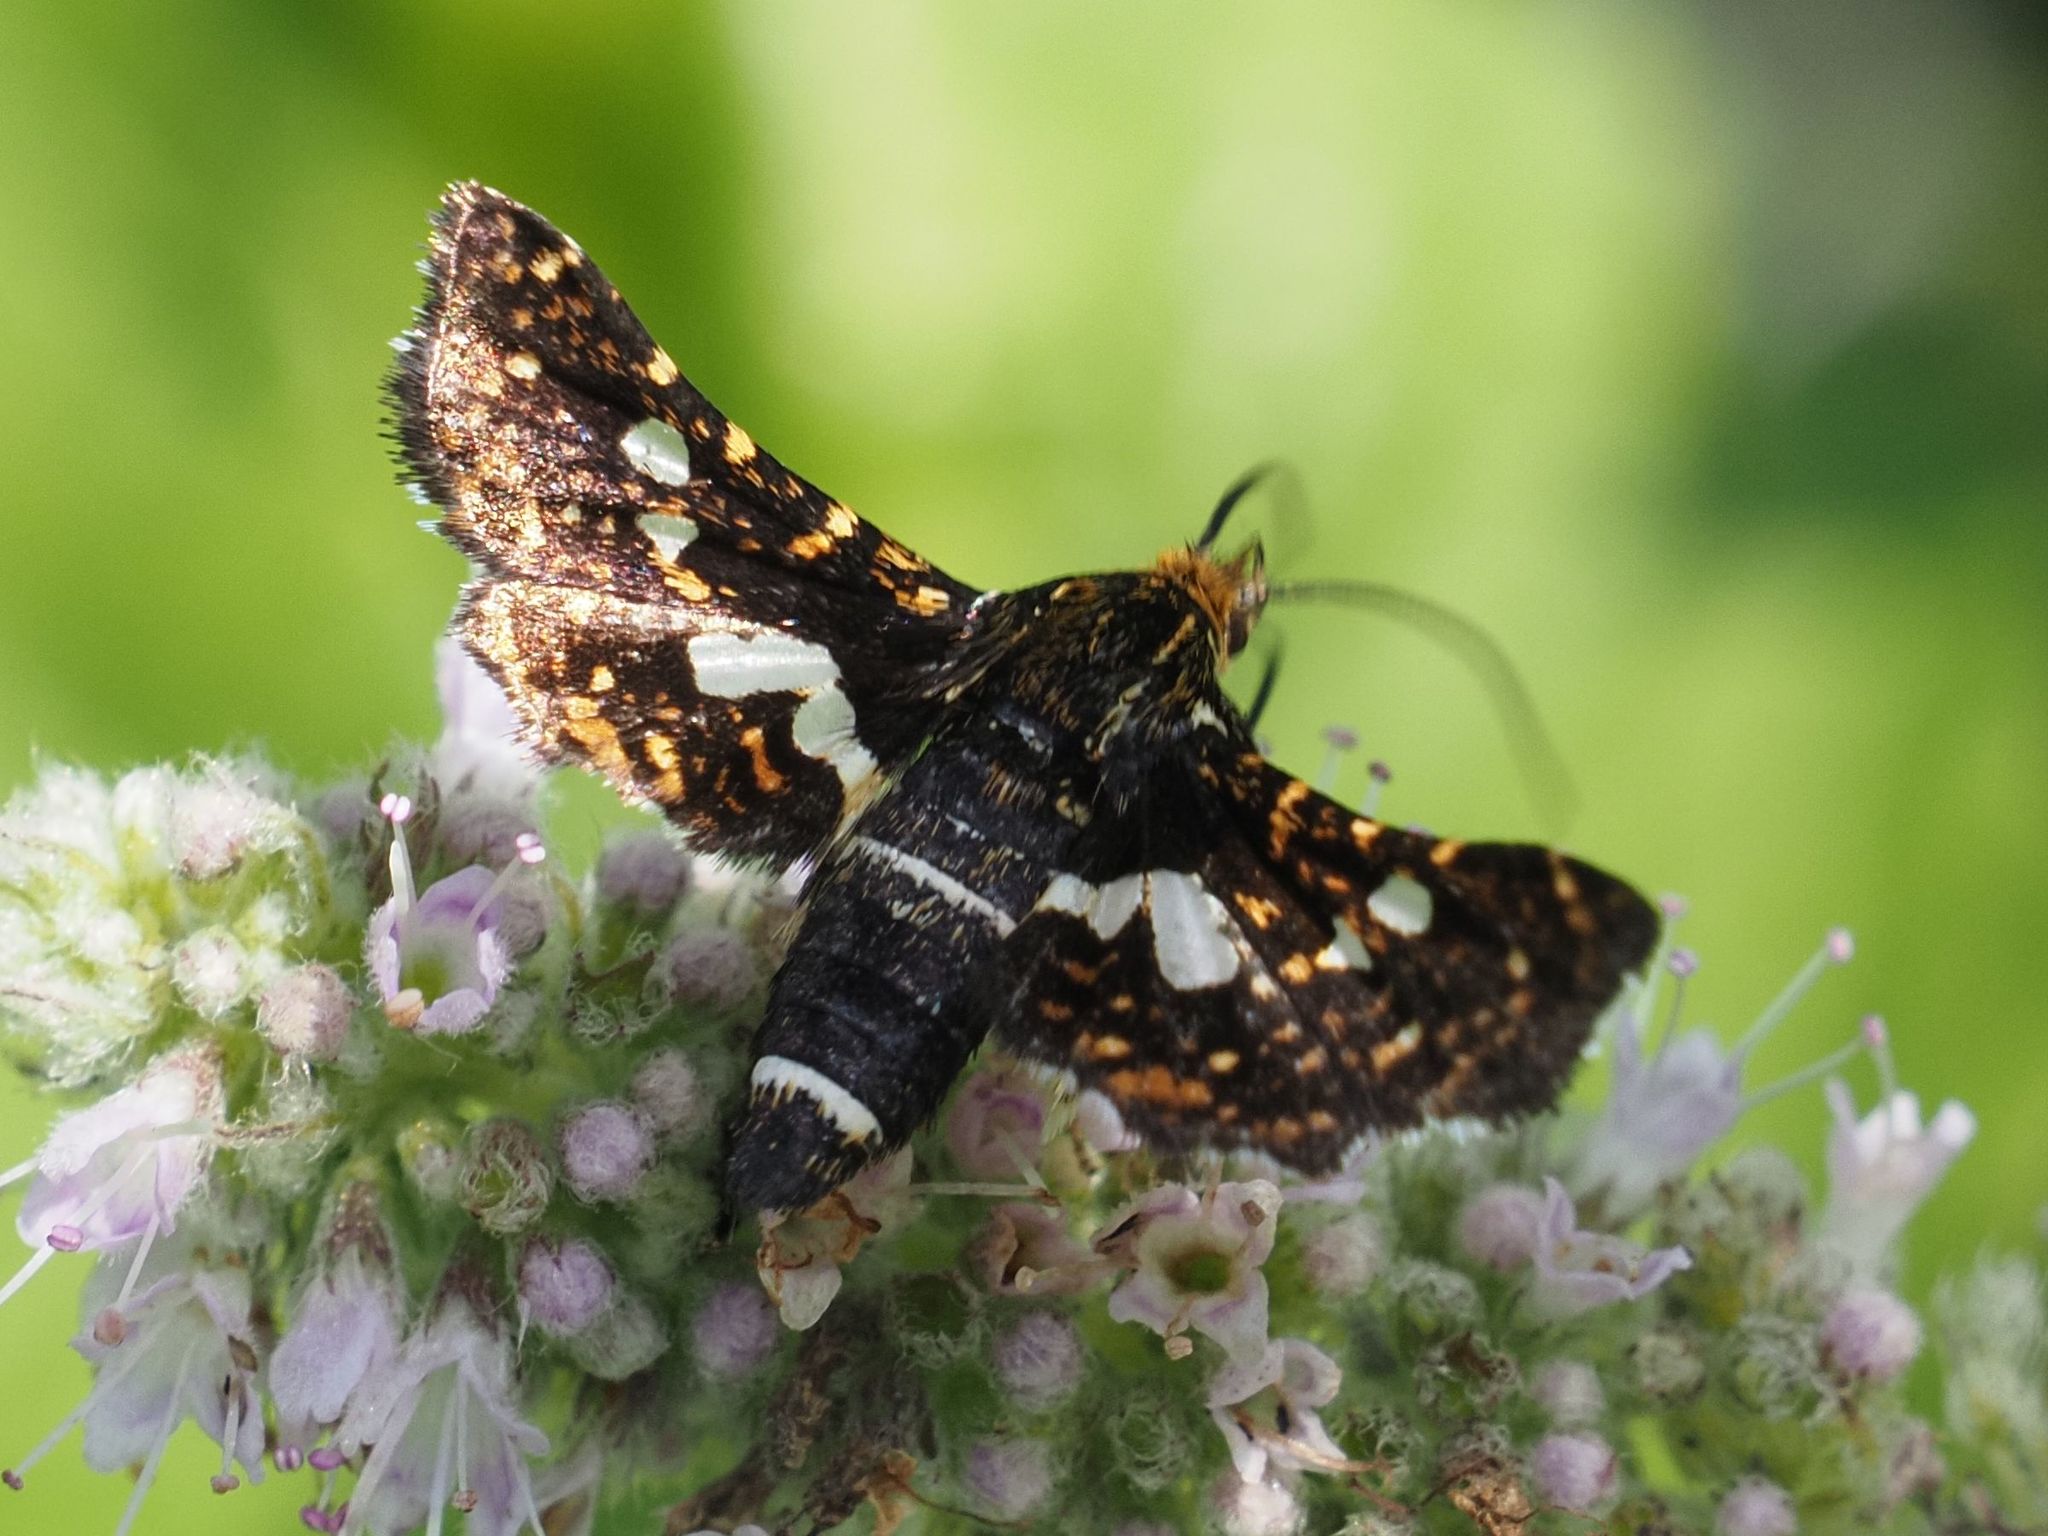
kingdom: Animalia
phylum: Arthropoda
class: Insecta
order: Lepidoptera
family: Thyrididae
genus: Thyris
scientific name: Thyris fenestrella
